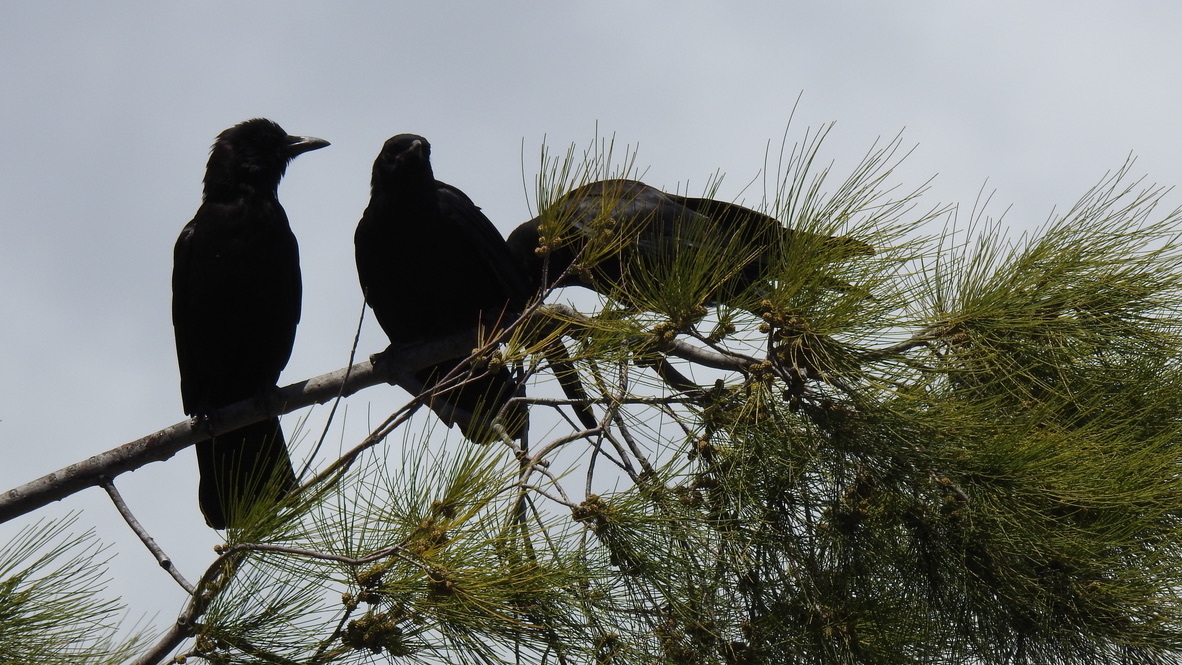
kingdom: Animalia
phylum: Chordata
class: Aves
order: Passeriformes
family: Corvidae
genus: Corvus
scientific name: Corvus brachyrhynchos
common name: American crow
